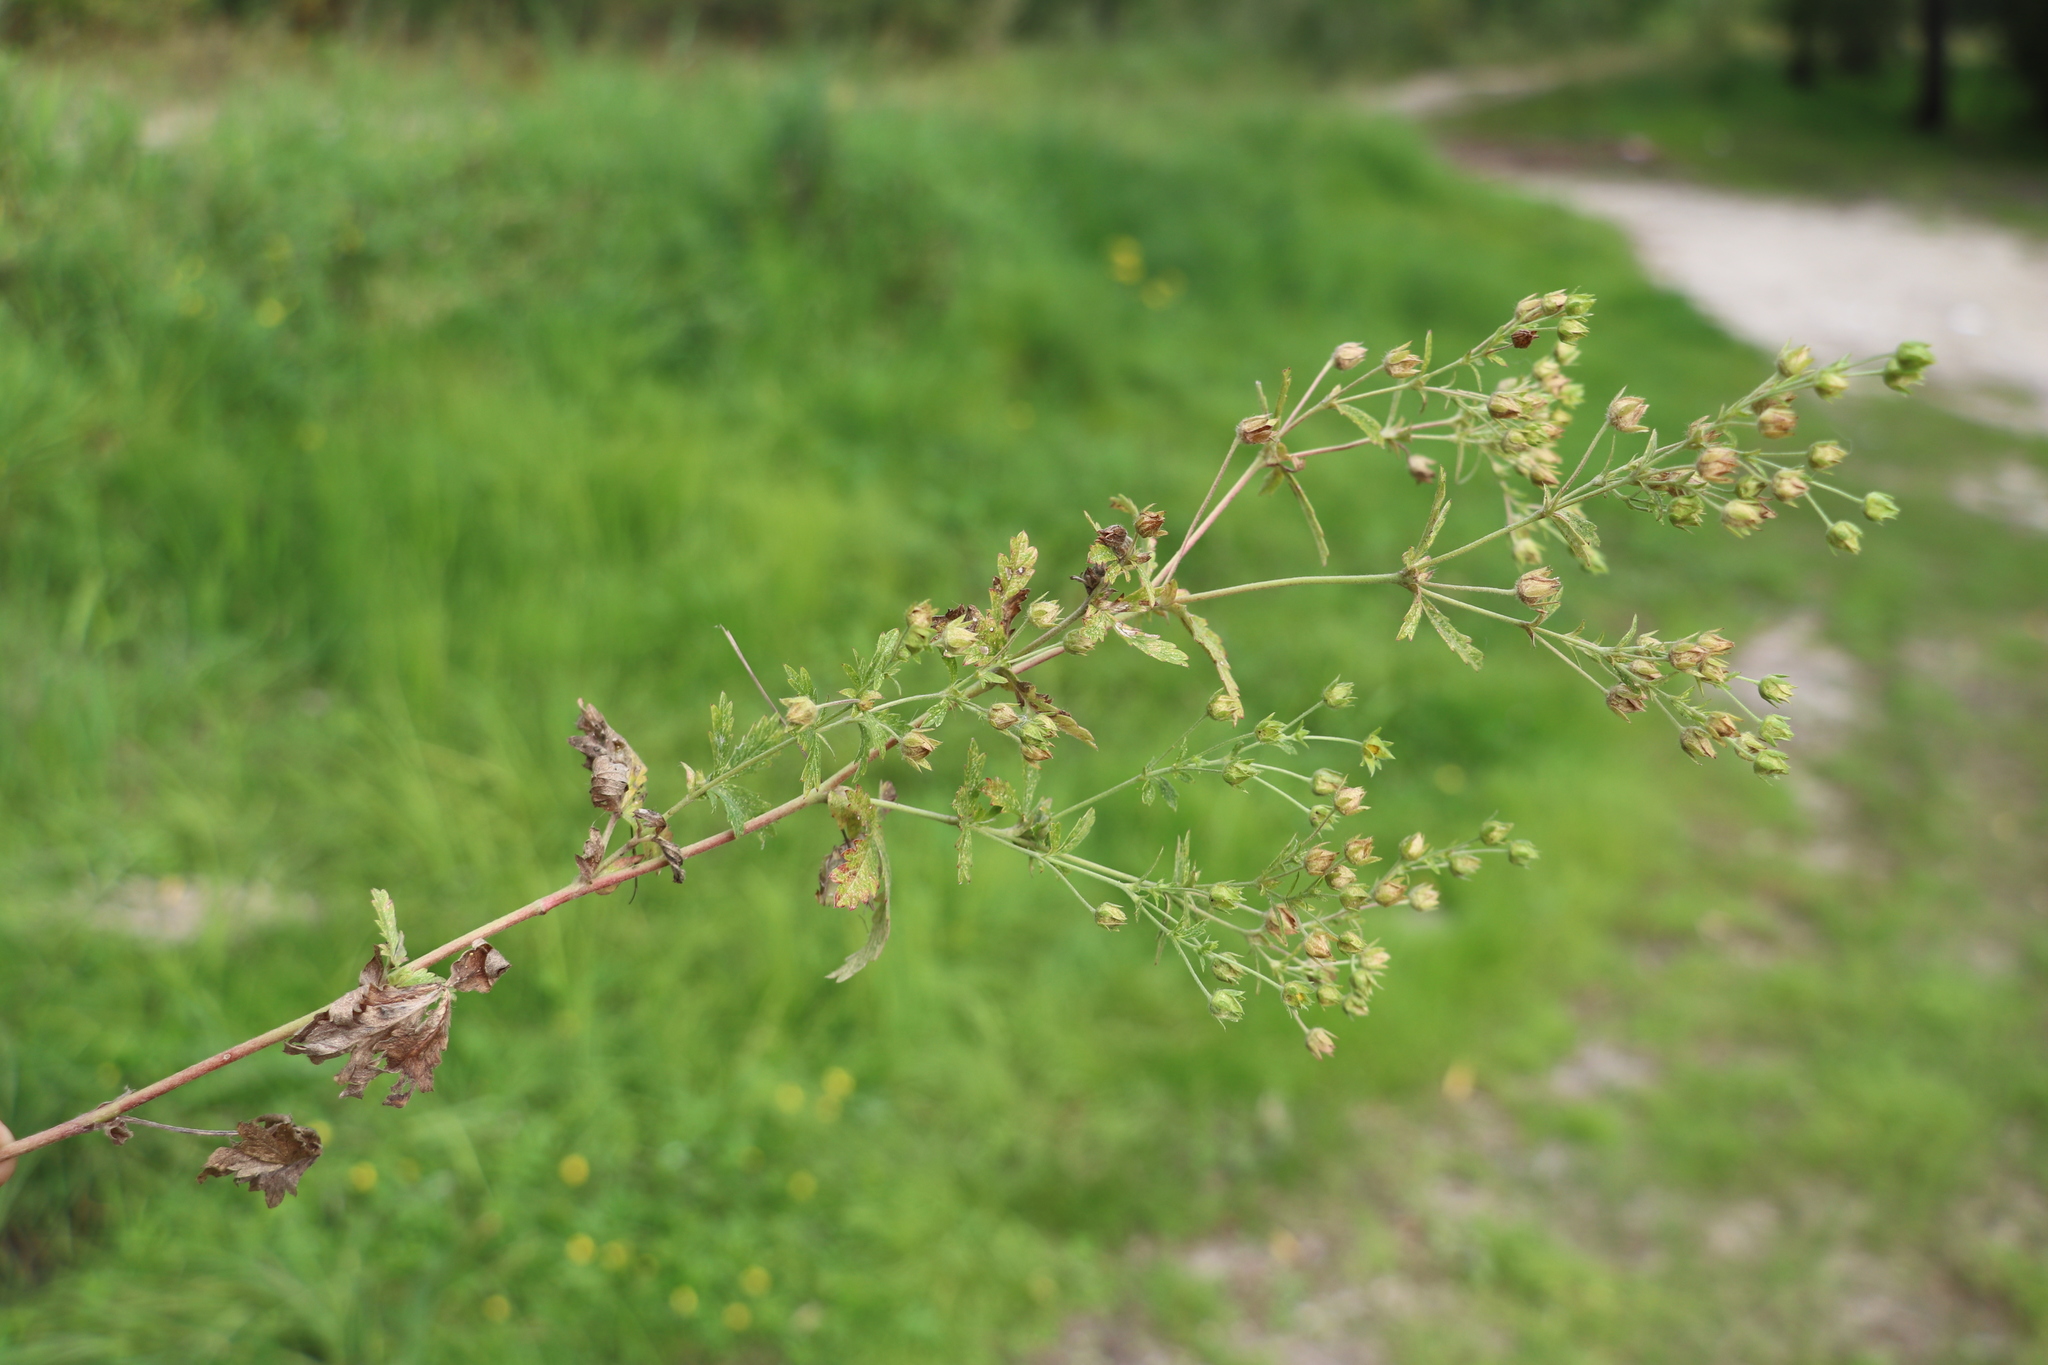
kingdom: Plantae
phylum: Tracheophyta
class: Magnoliopsida
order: Rosales
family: Rosaceae
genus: Potentilla
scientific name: Potentilla intermedia
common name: Downy cinquefoil
